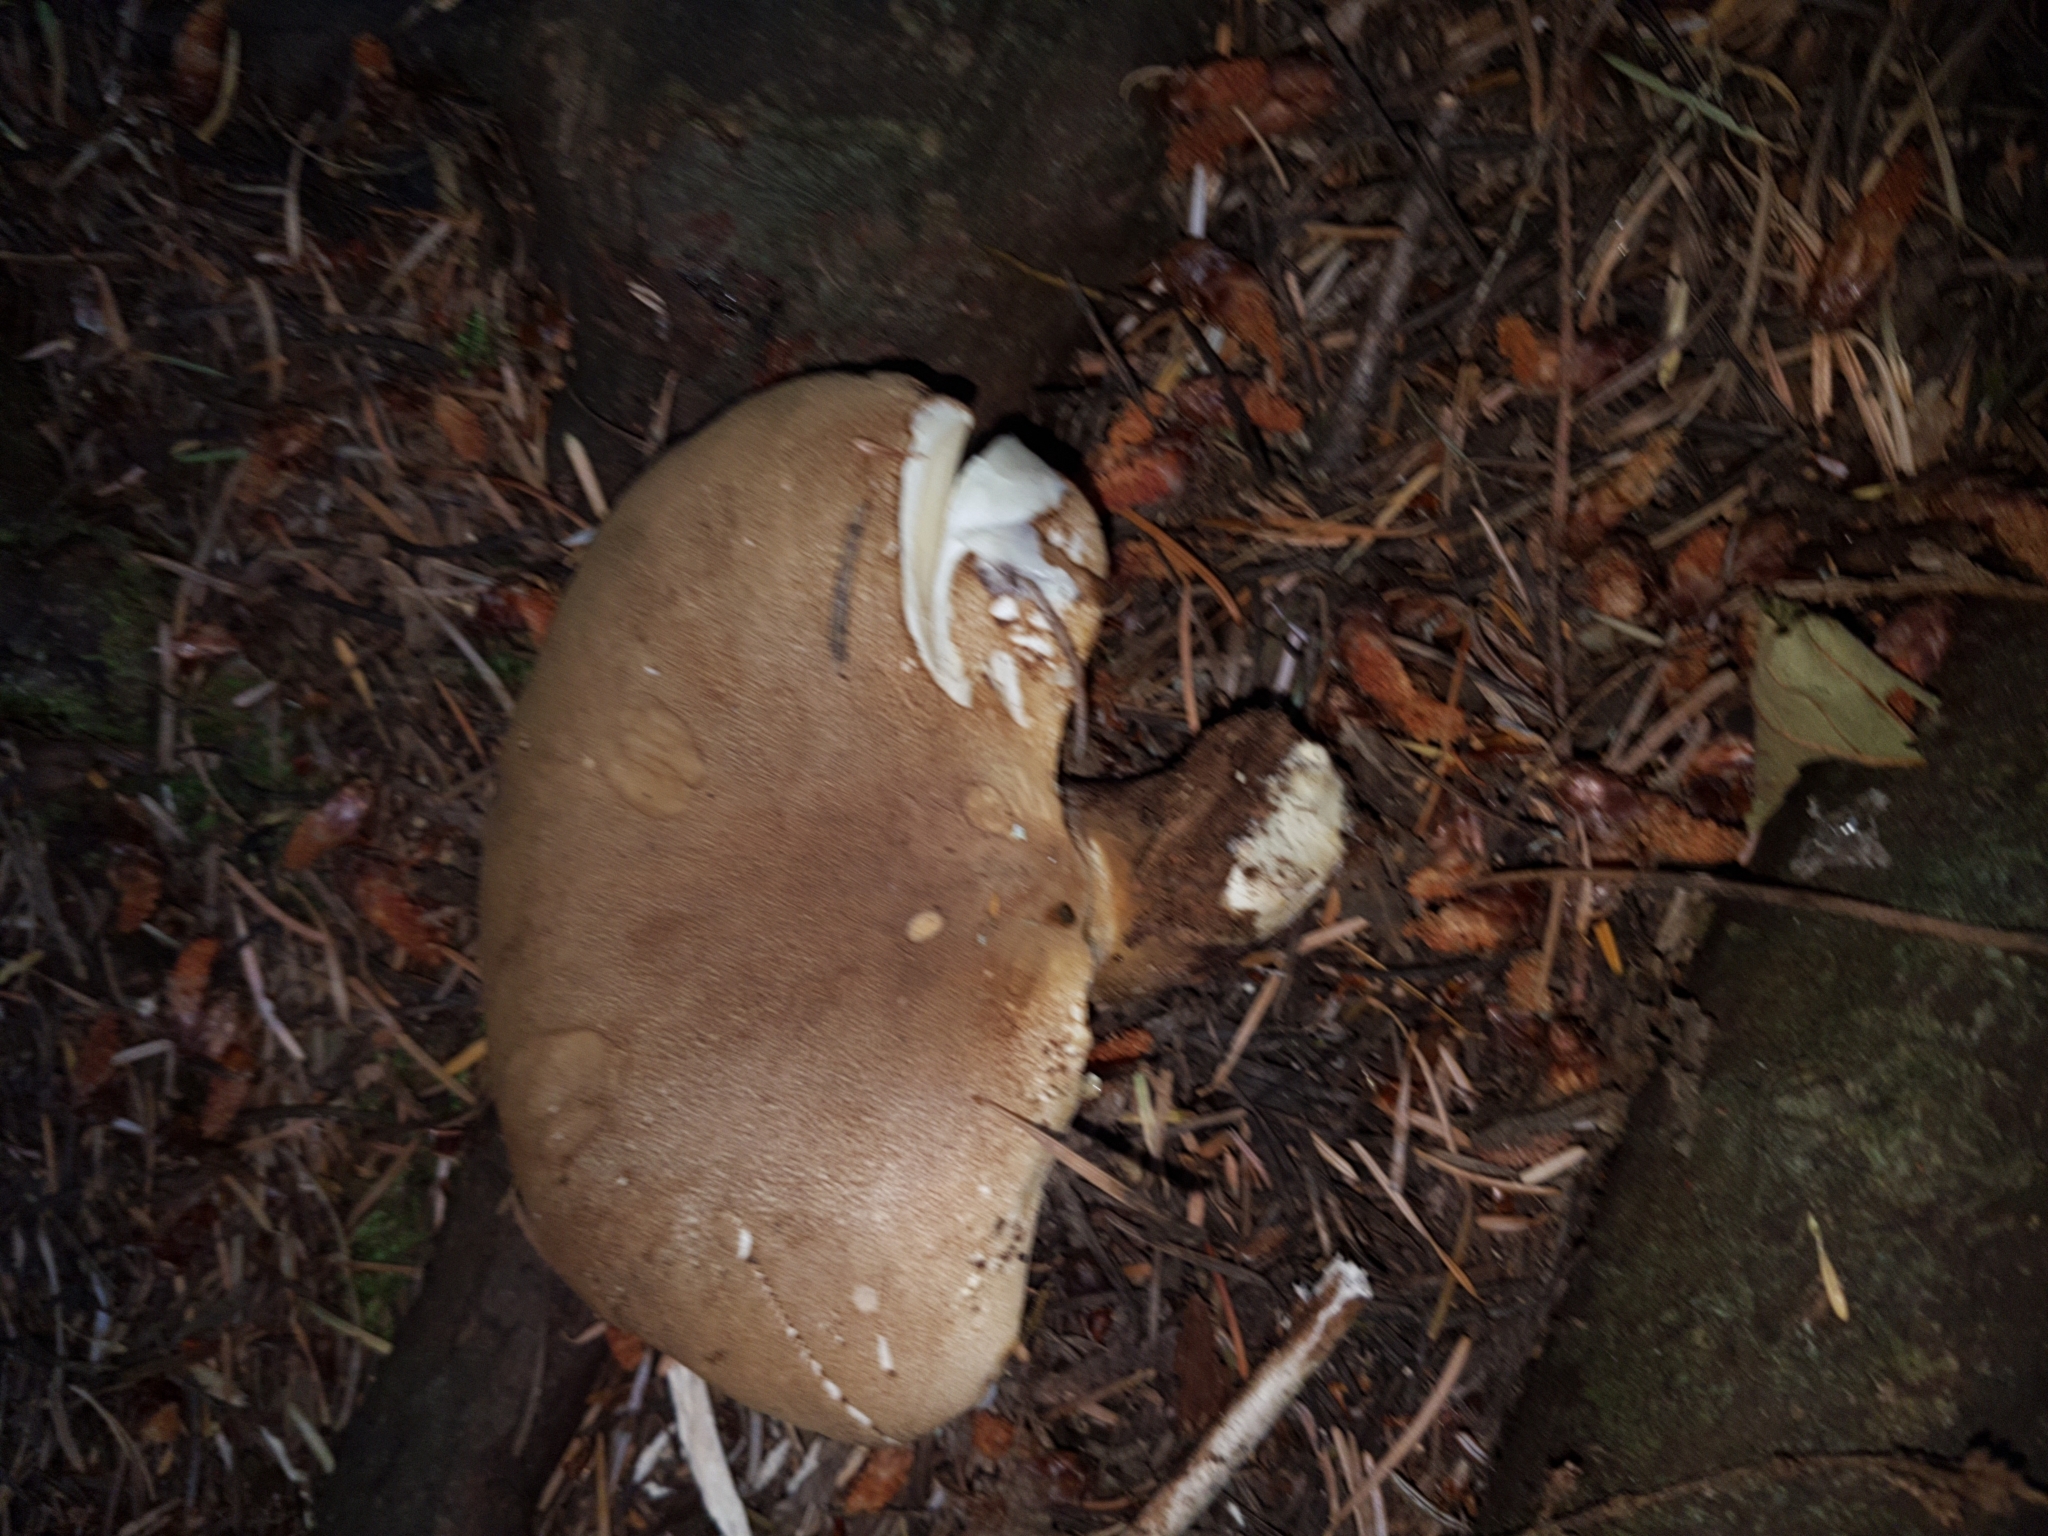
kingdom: Fungi
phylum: Basidiomycota
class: Agaricomycetes
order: Boletales
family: Tapinellaceae
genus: Tapinella
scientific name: Tapinella atrotomentosa
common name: Velvet rollrim
